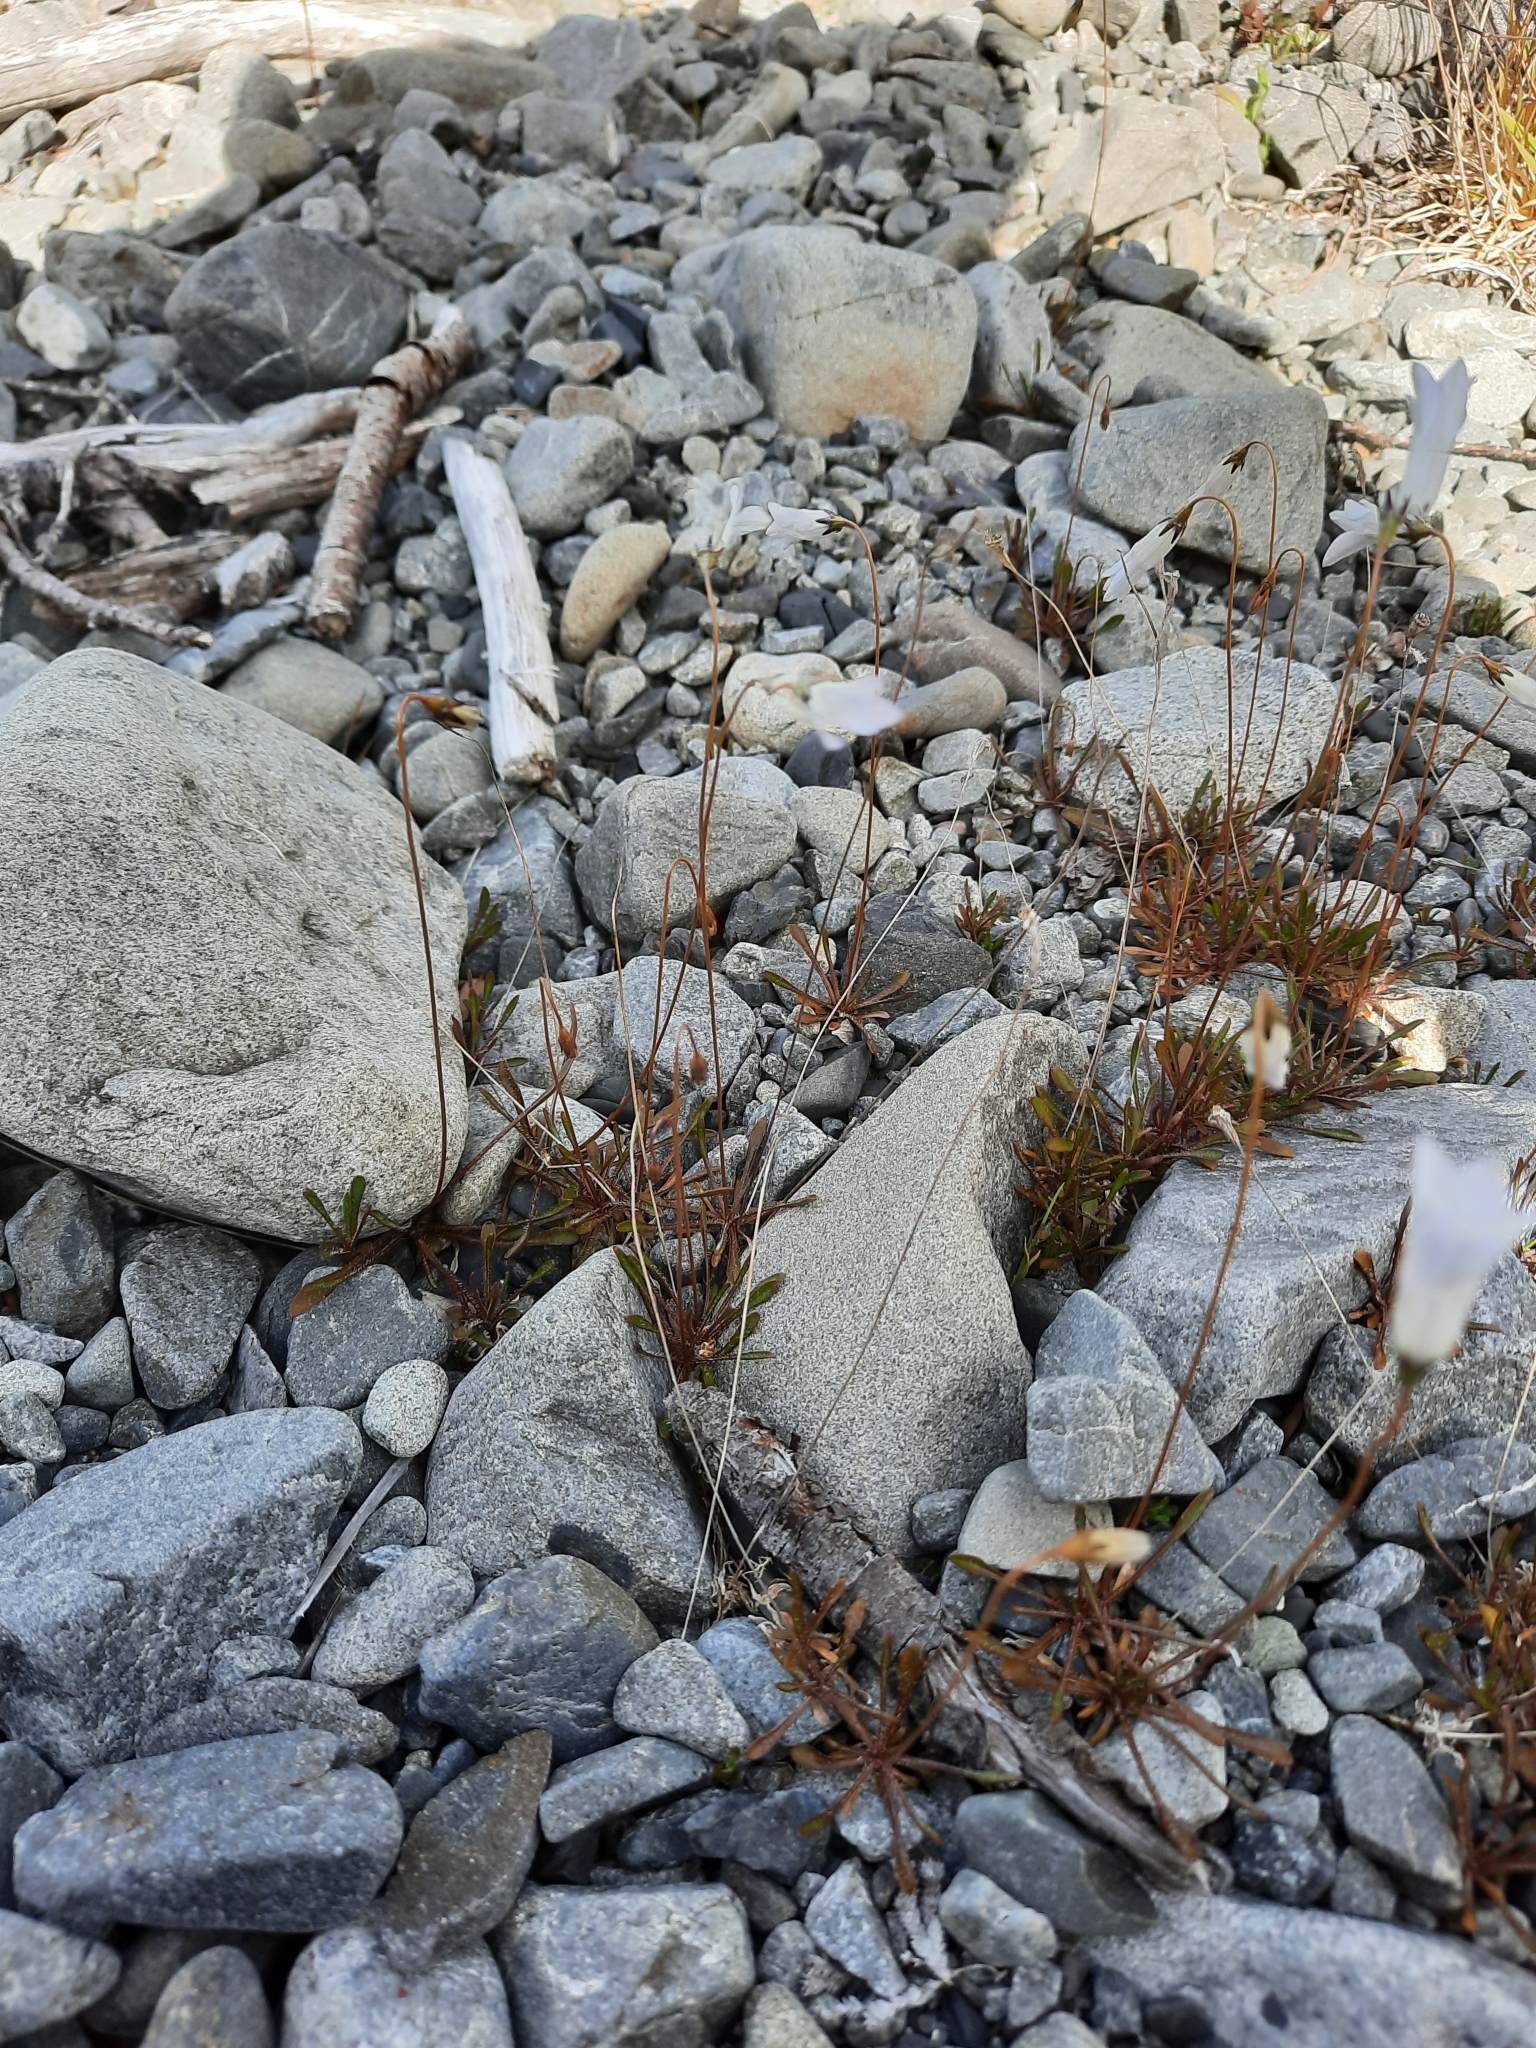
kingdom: Plantae
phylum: Tracheophyta
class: Magnoliopsida
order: Asterales
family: Campanulaceae
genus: Wahlenbergia
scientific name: Wahlenbergia albomarginata
